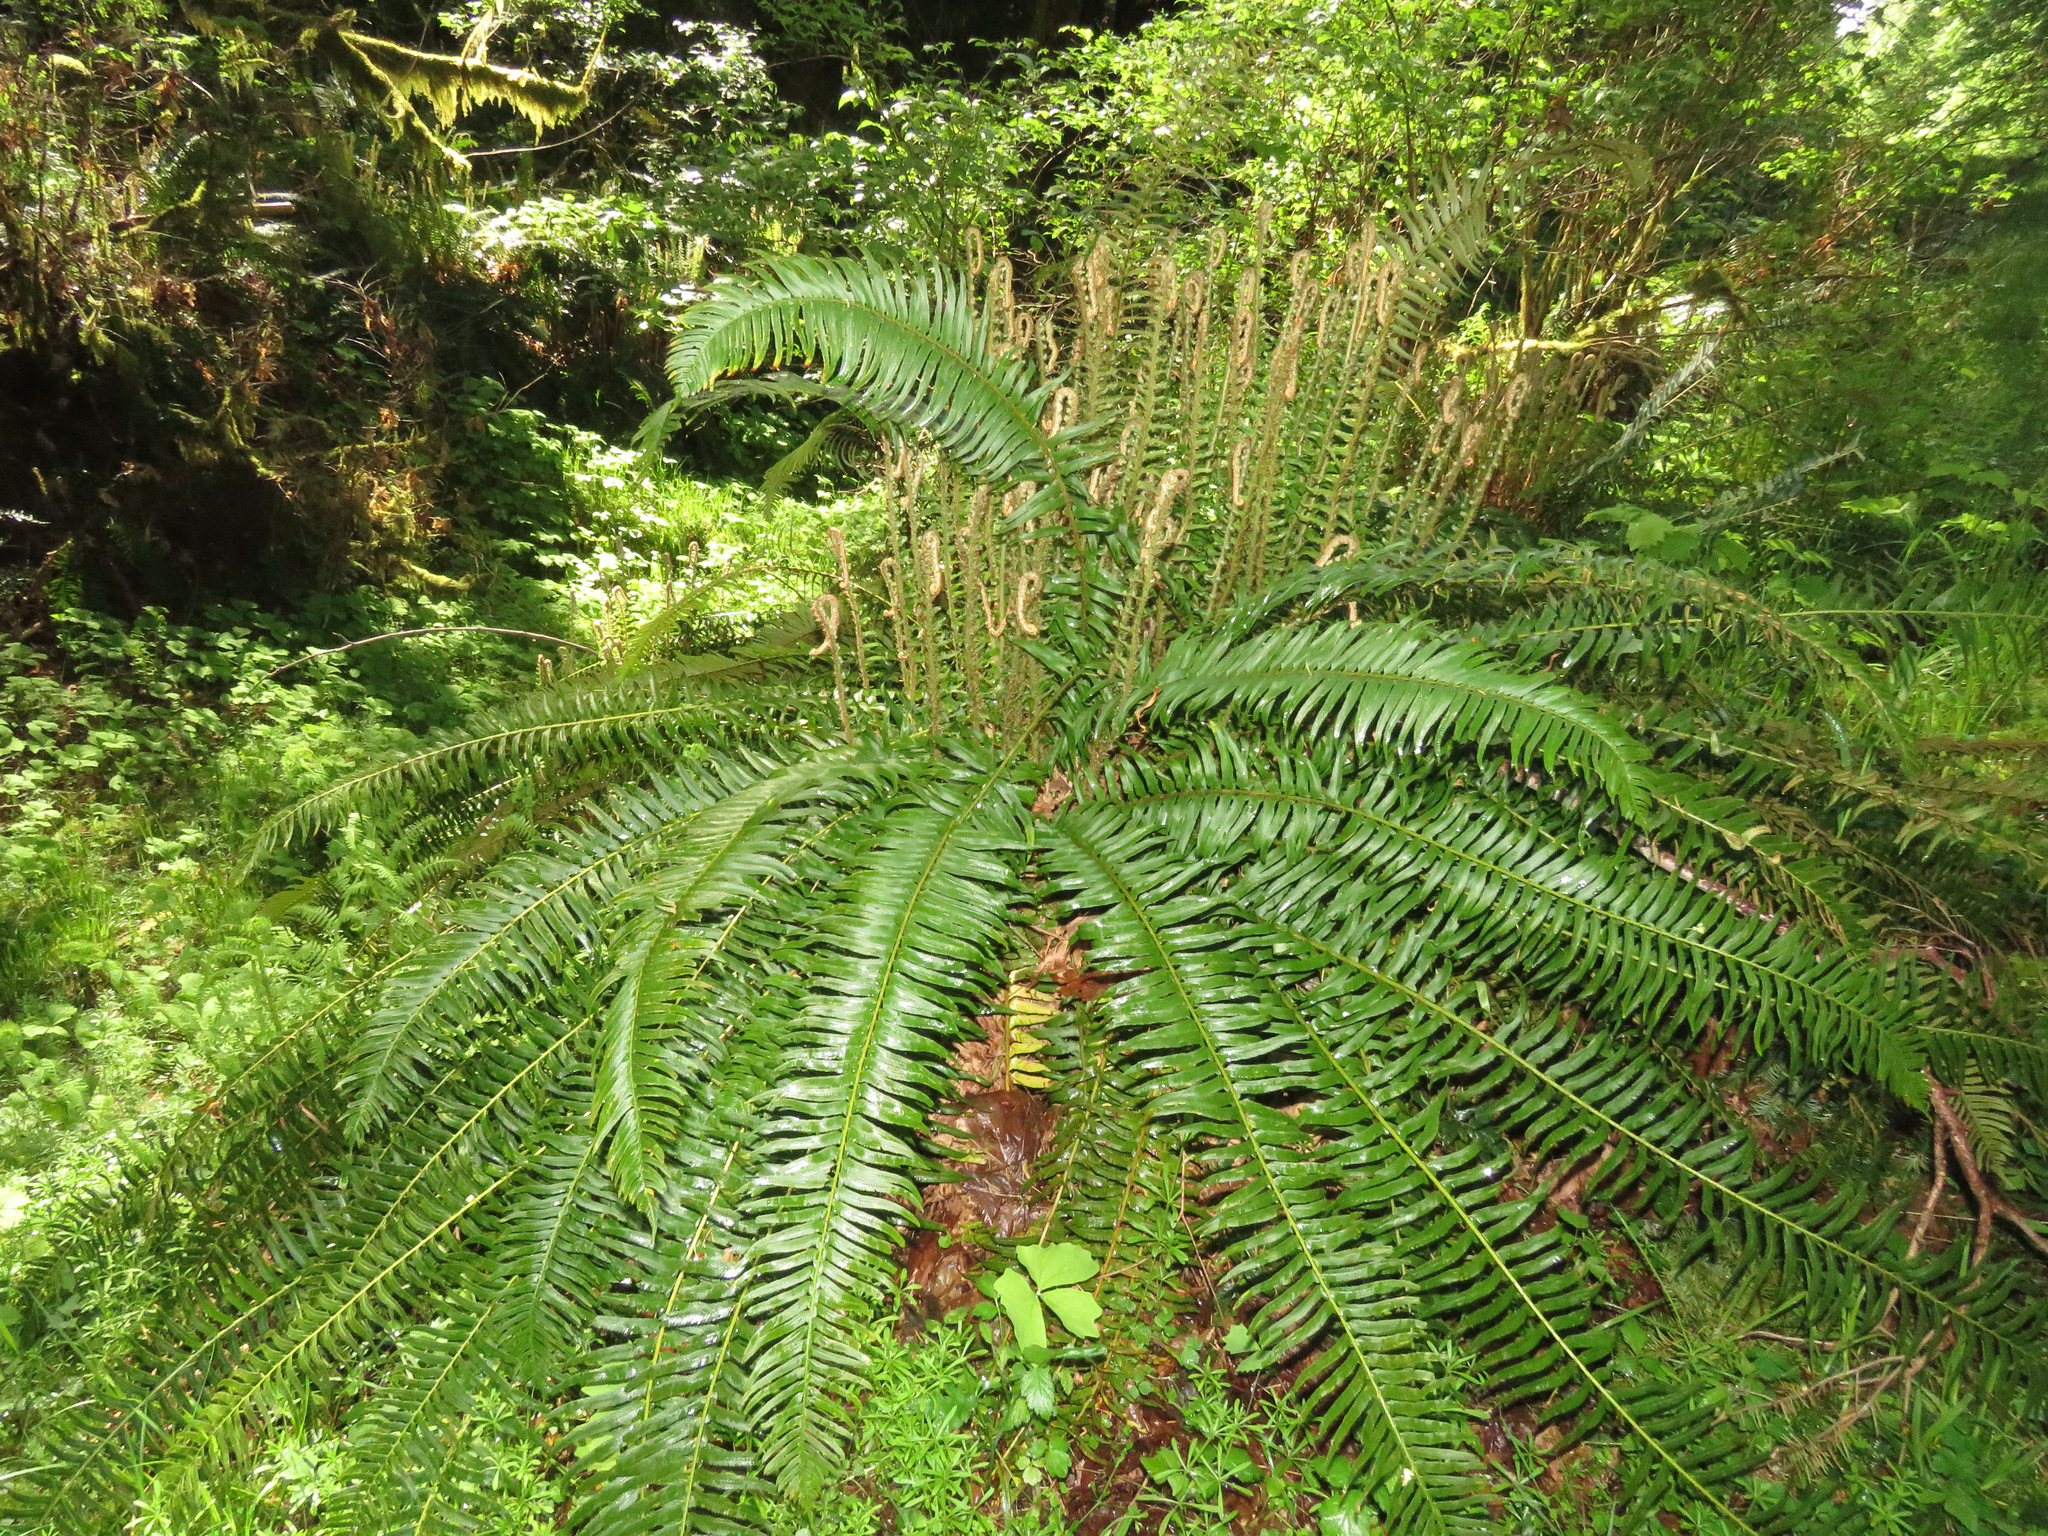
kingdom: Plantae
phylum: Tracheophyta
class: Polypodiopsida
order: Polypodiales
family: Dryopteridaceae
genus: Polystichum
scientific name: Polystichum munitum
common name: Western sword-fern
